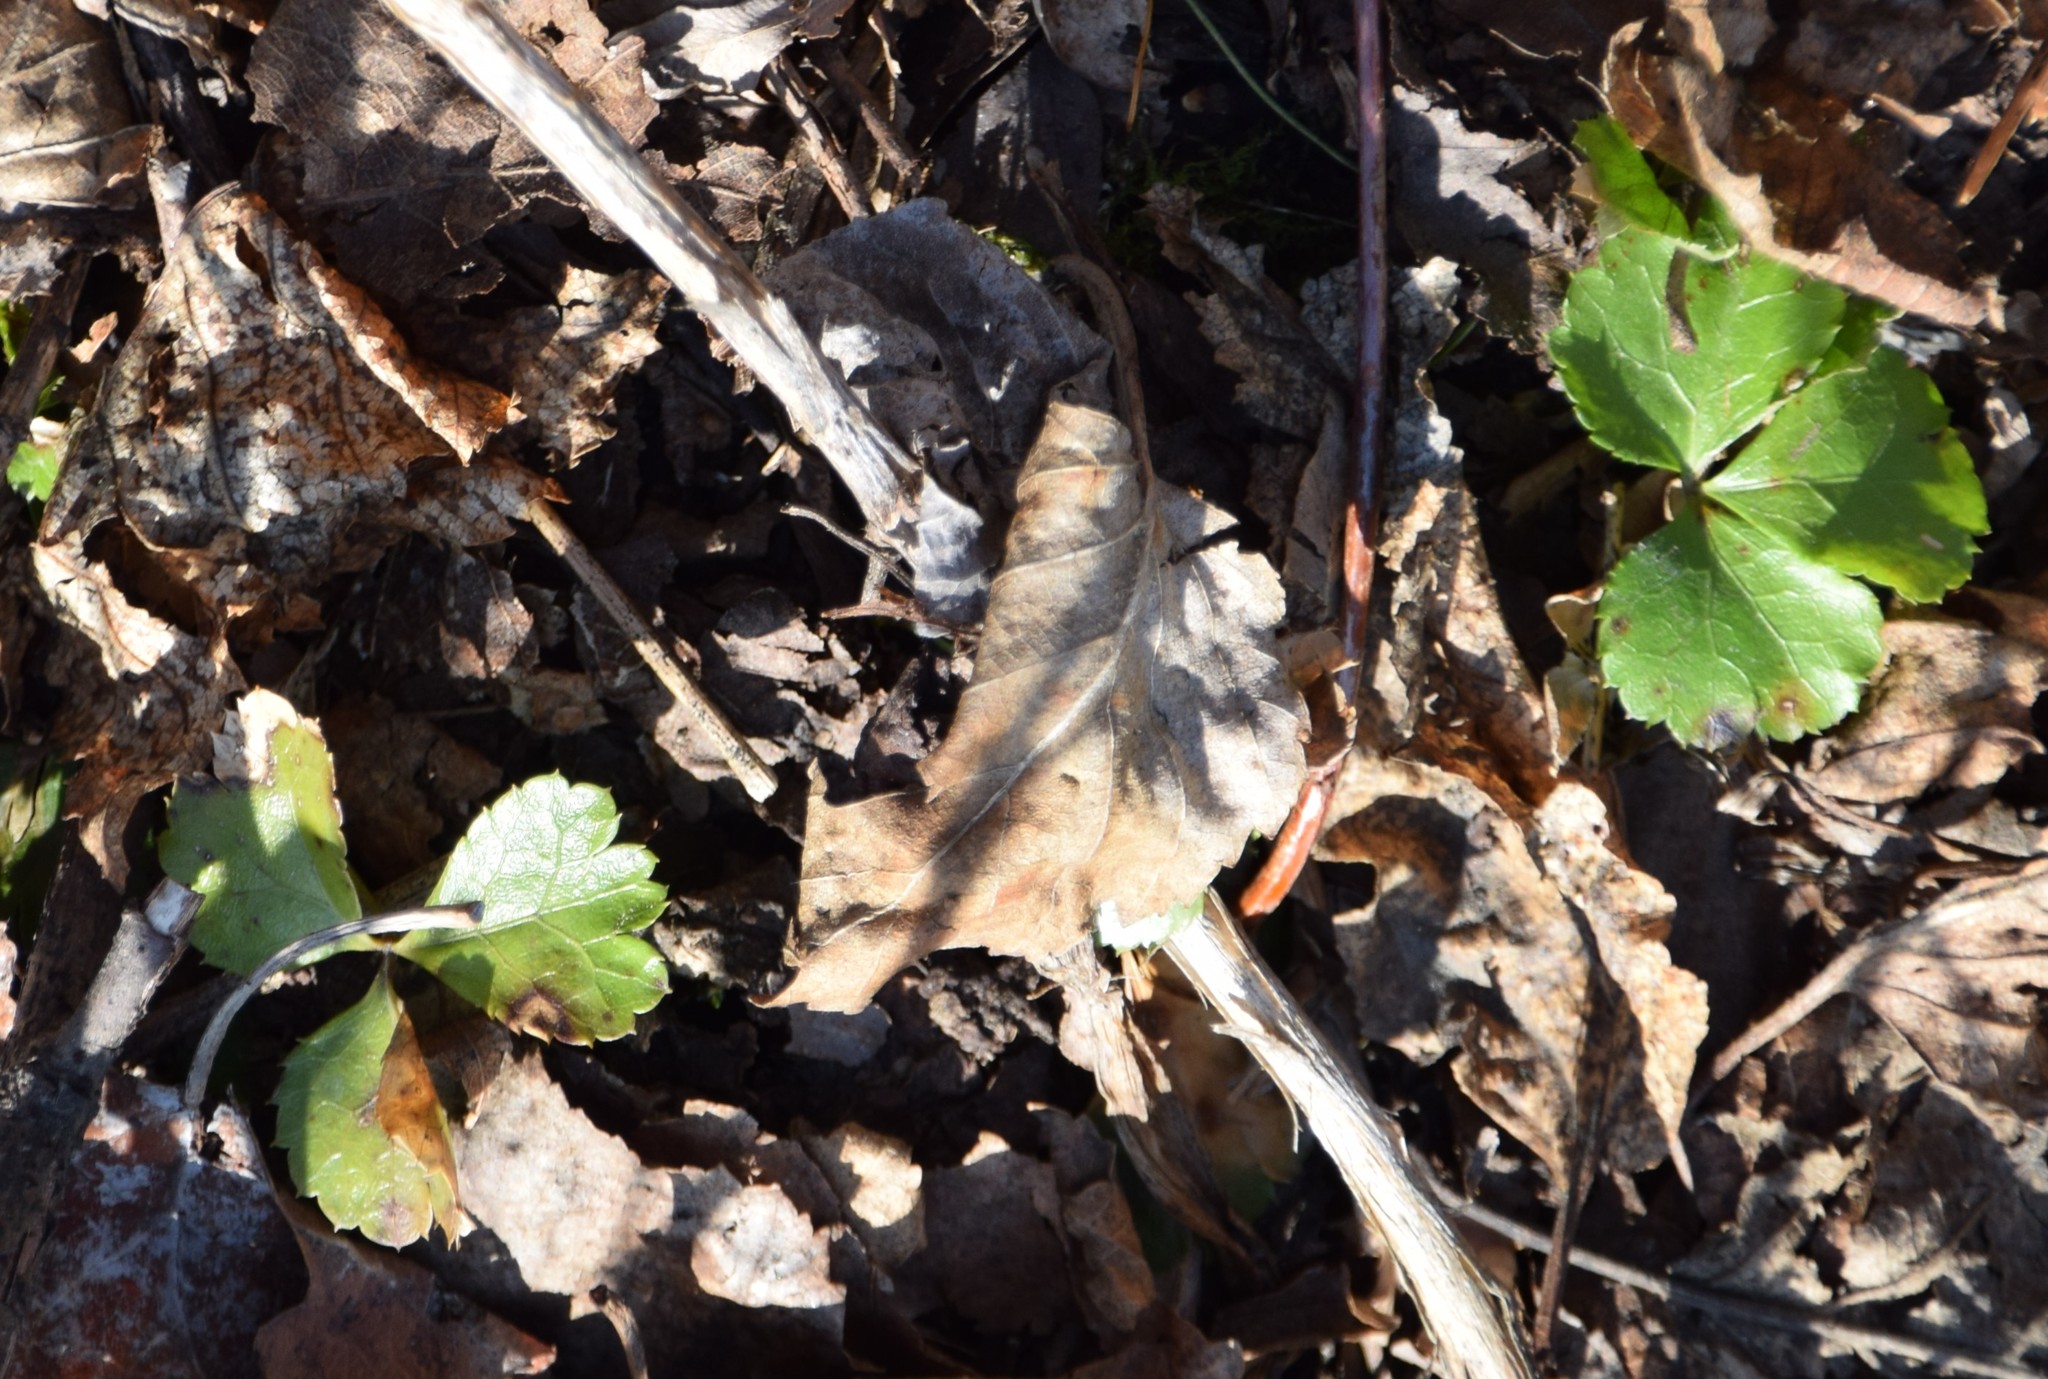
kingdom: Plantae
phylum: Tracheophyta
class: Magnoliopsida
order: Ranunculales
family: Ranunculaceae
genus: Coptis
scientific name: Coptis trifolia
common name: Canker-root
